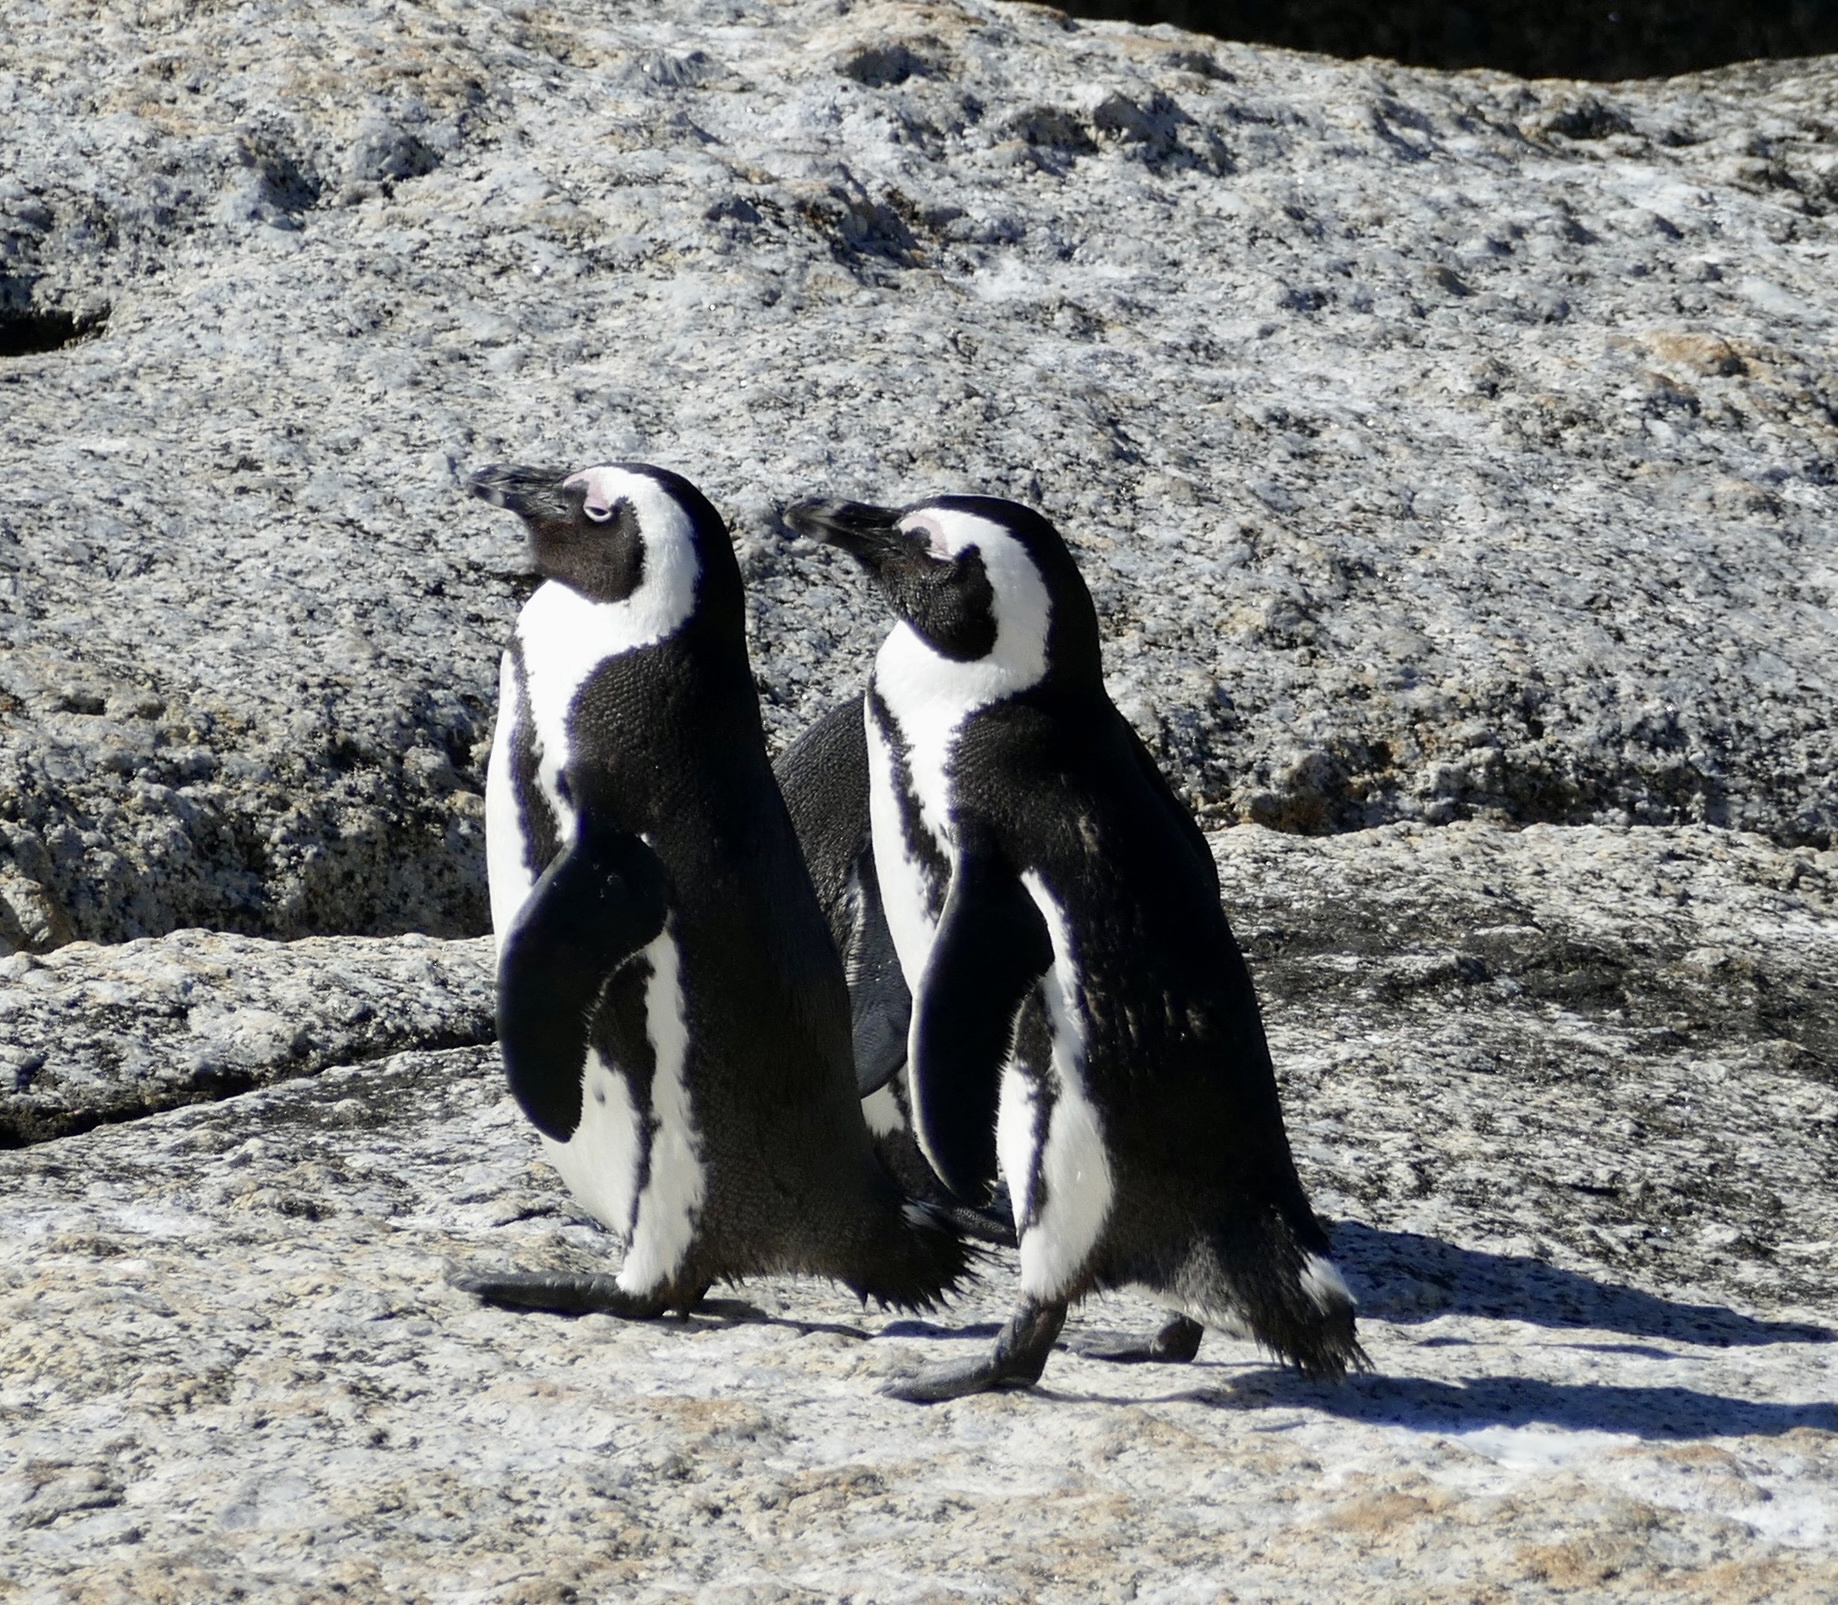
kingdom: Animalia
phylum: Chordata
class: Aves
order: Sphenisciformes
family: Spheniscidae
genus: Spheniscus
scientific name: Spheniscus demersus
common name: African penguin
